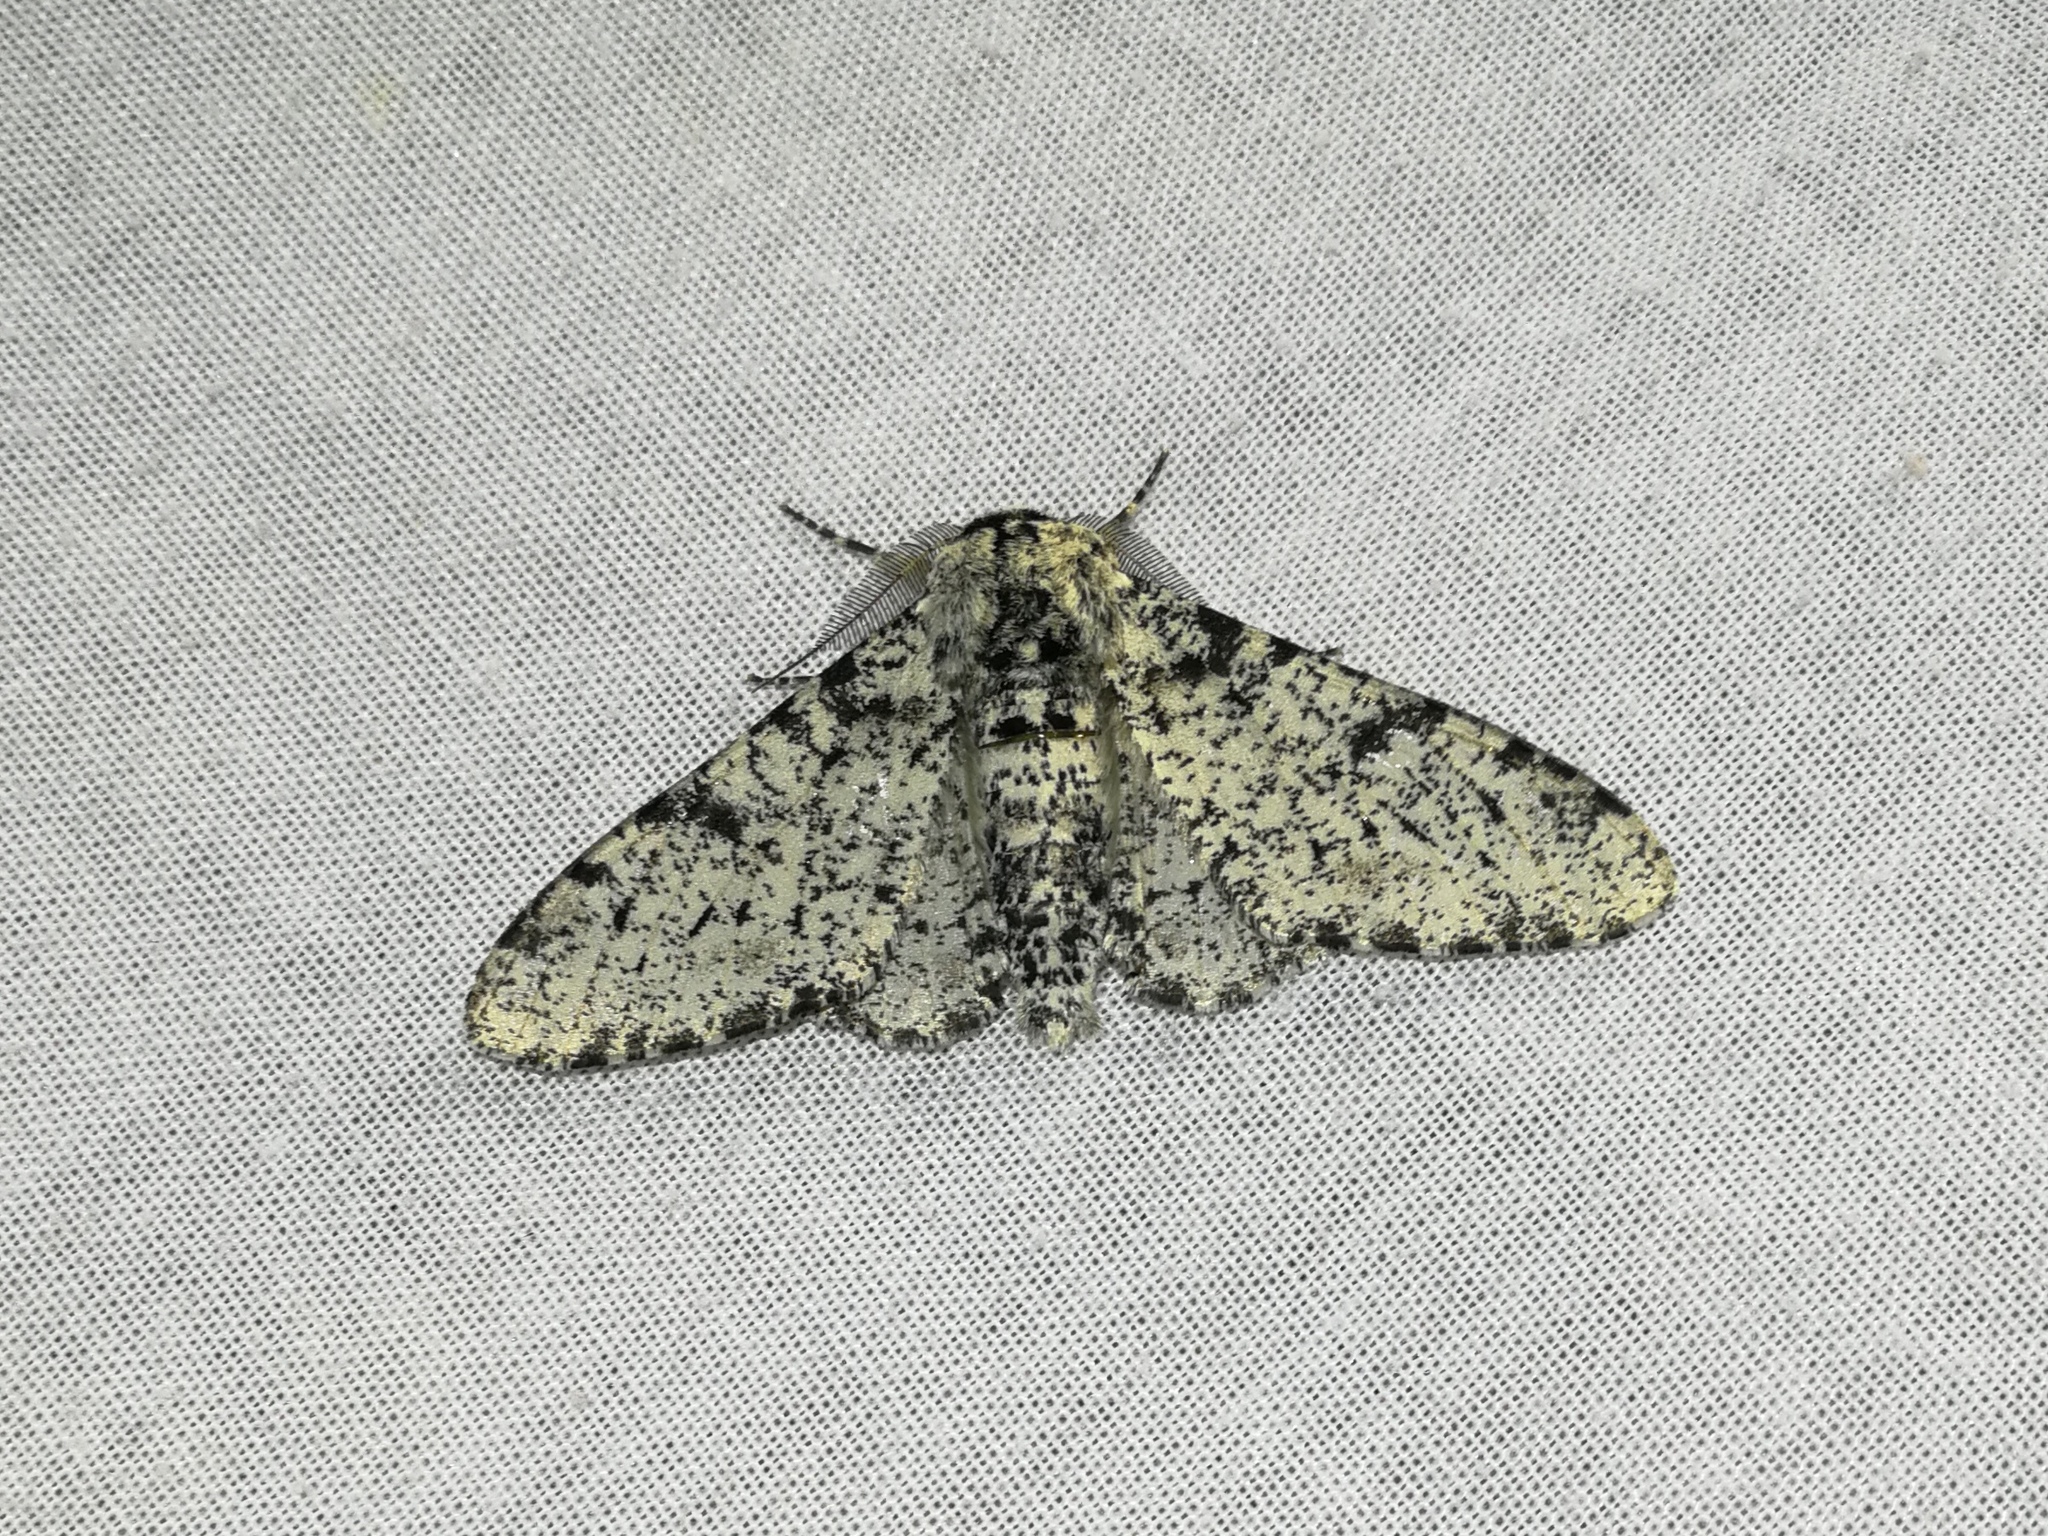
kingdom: Animalia
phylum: Arthropoda
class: Insecta
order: Lepidoptera
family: Geometridae
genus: Biston
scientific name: Biston betularia
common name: Peppered moth
